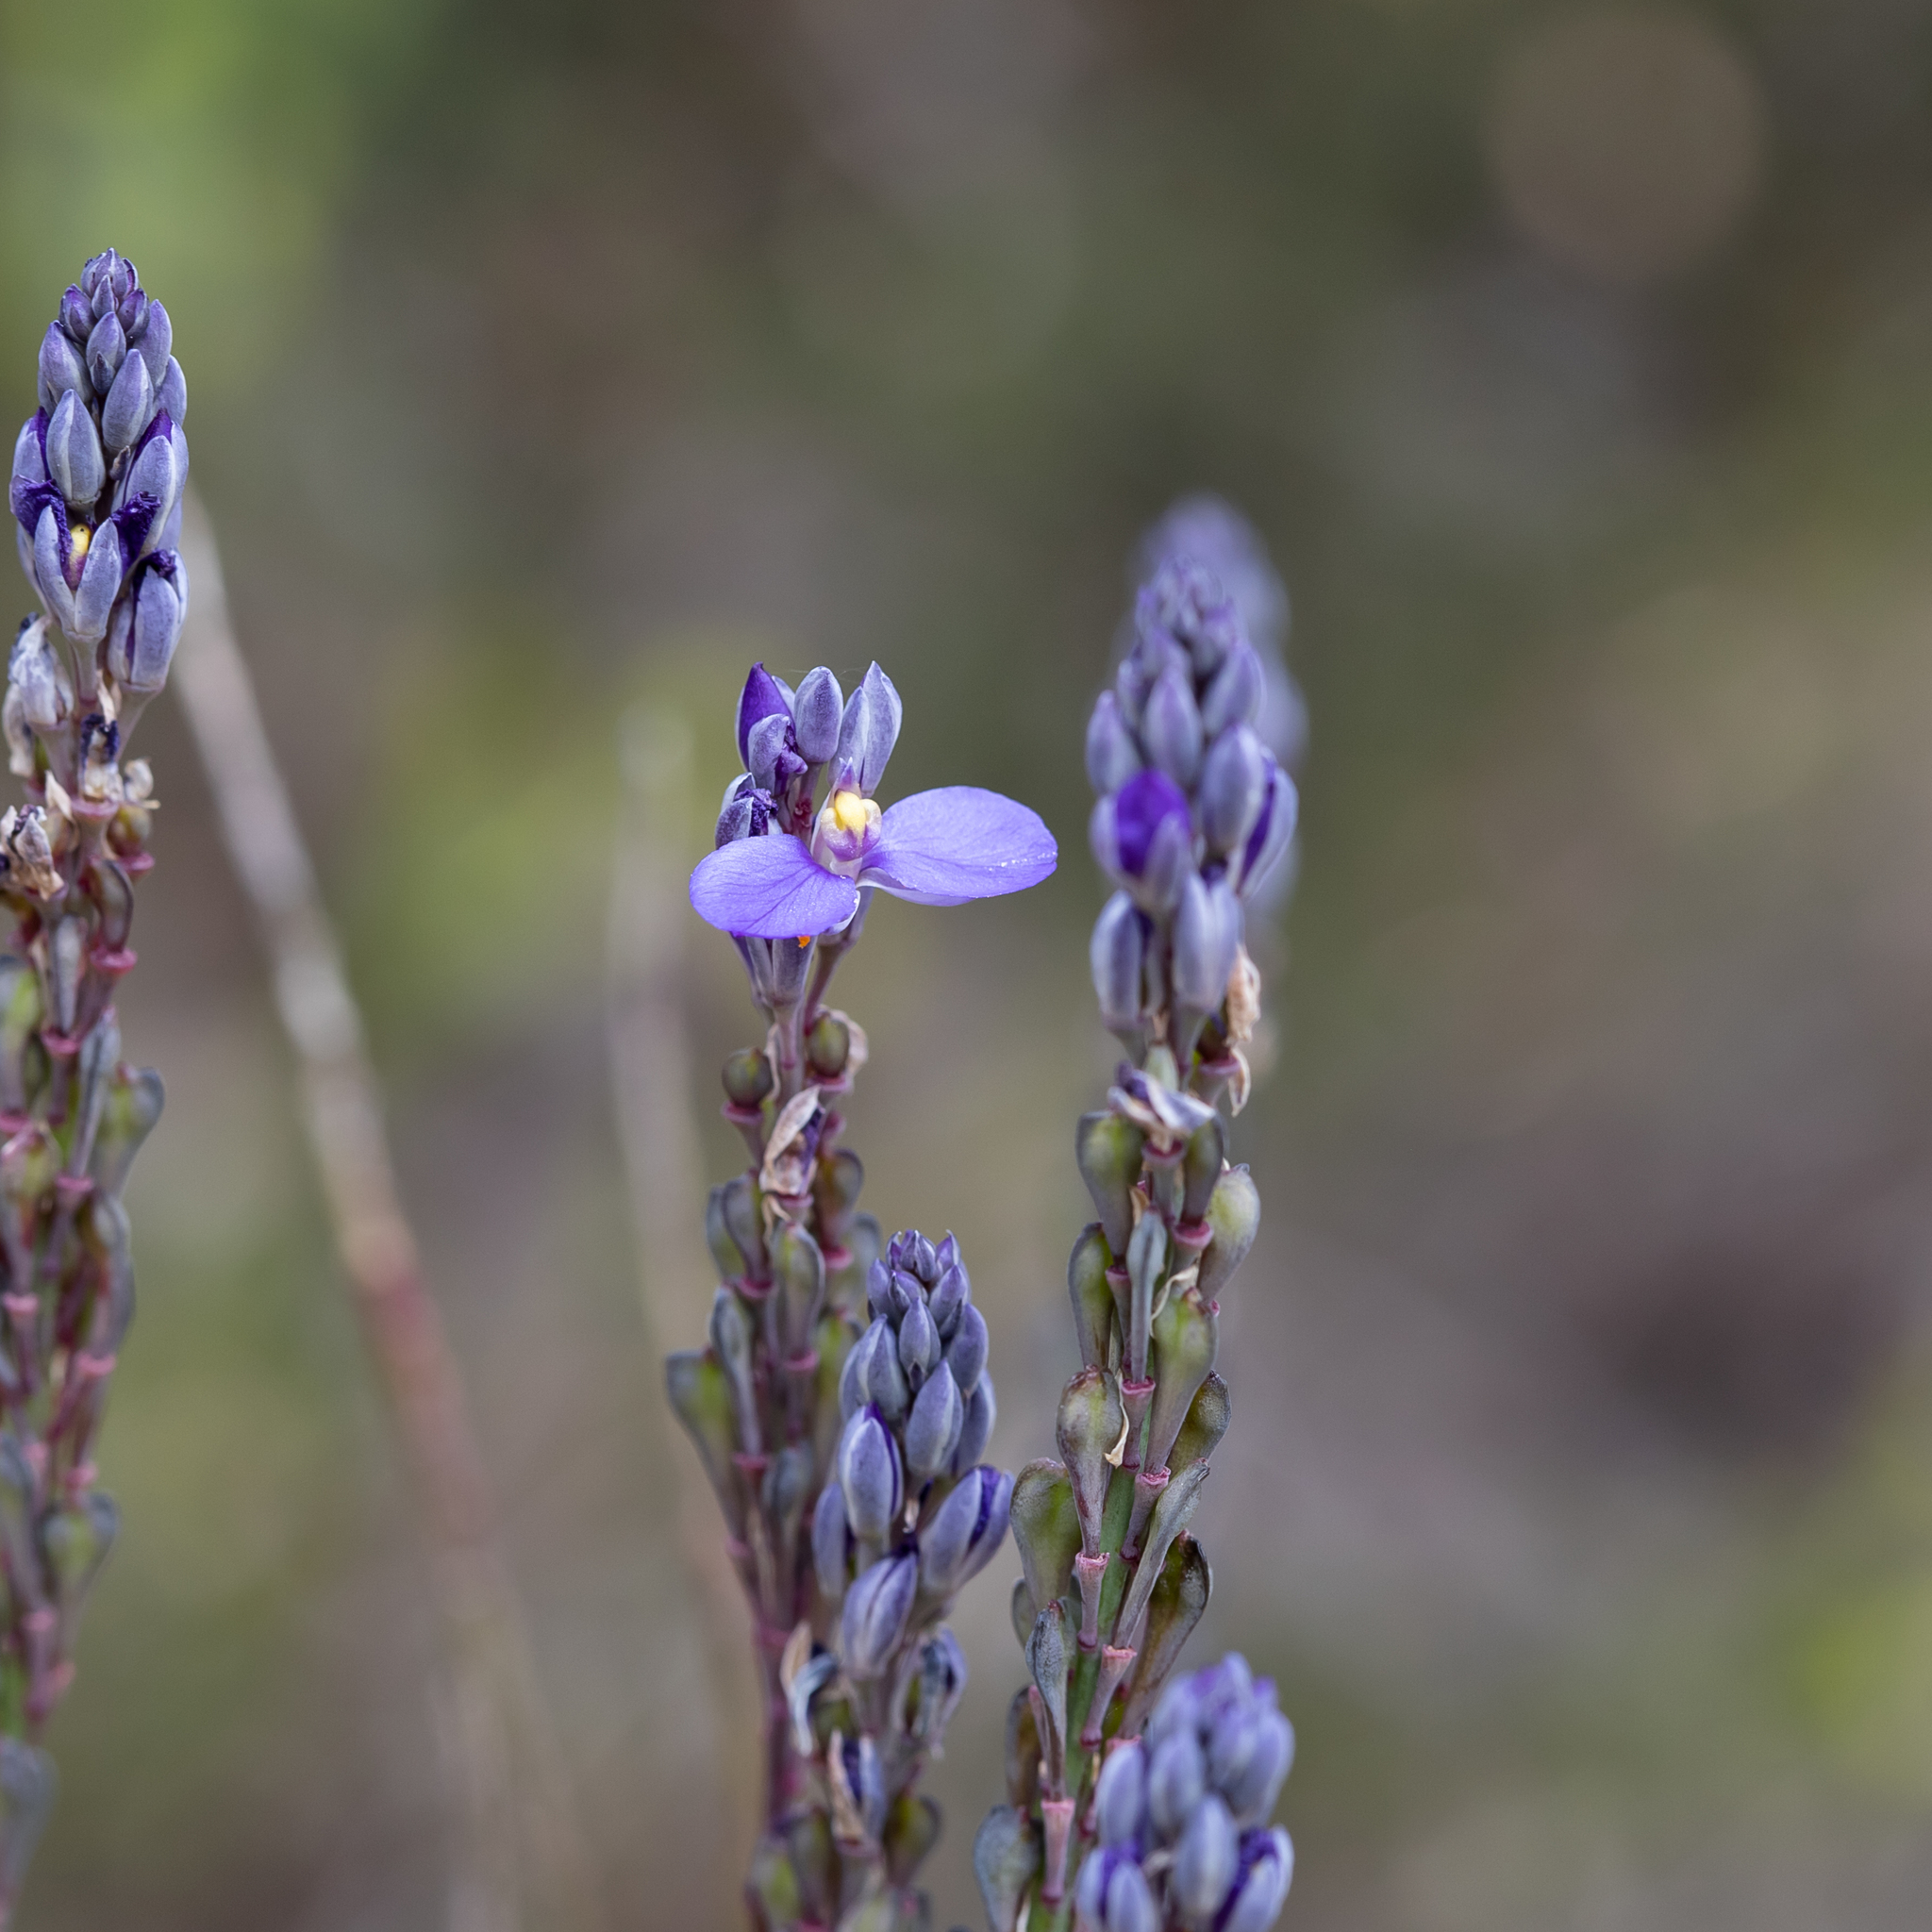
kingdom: Plantae
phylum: Tracheophyta
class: Magnoliopsida
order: Fabales
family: Polygalaceae
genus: Comesperma
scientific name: Comesperma calymega
